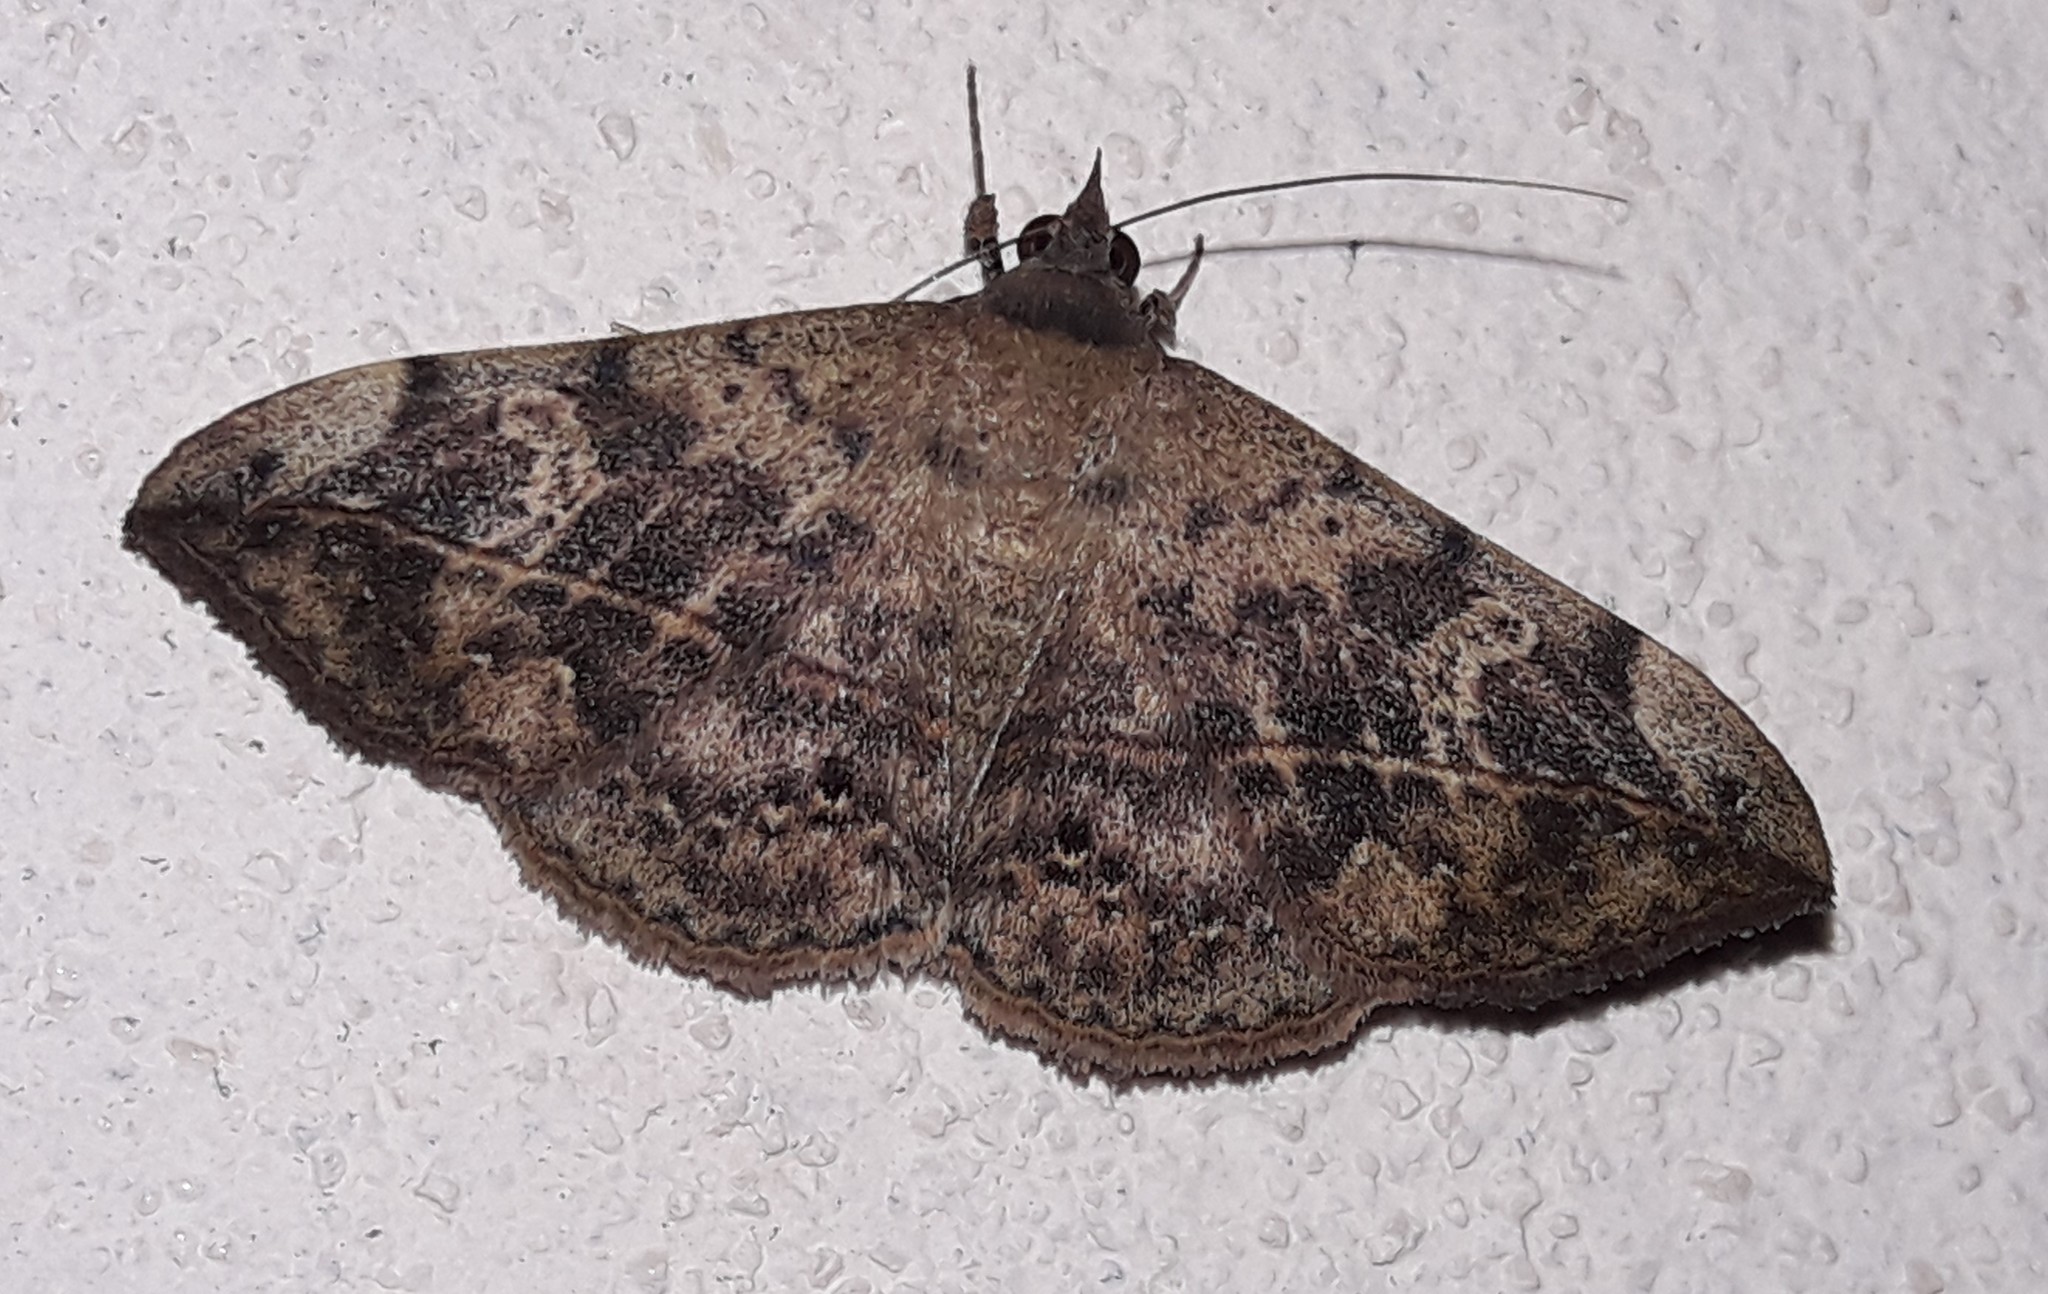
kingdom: Animalia
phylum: Arthropoda
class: Insecta
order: Lepidoptera
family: Erebidae
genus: Anticarsia
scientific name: Anticarsia gemmatalis
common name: Cutworm moth
